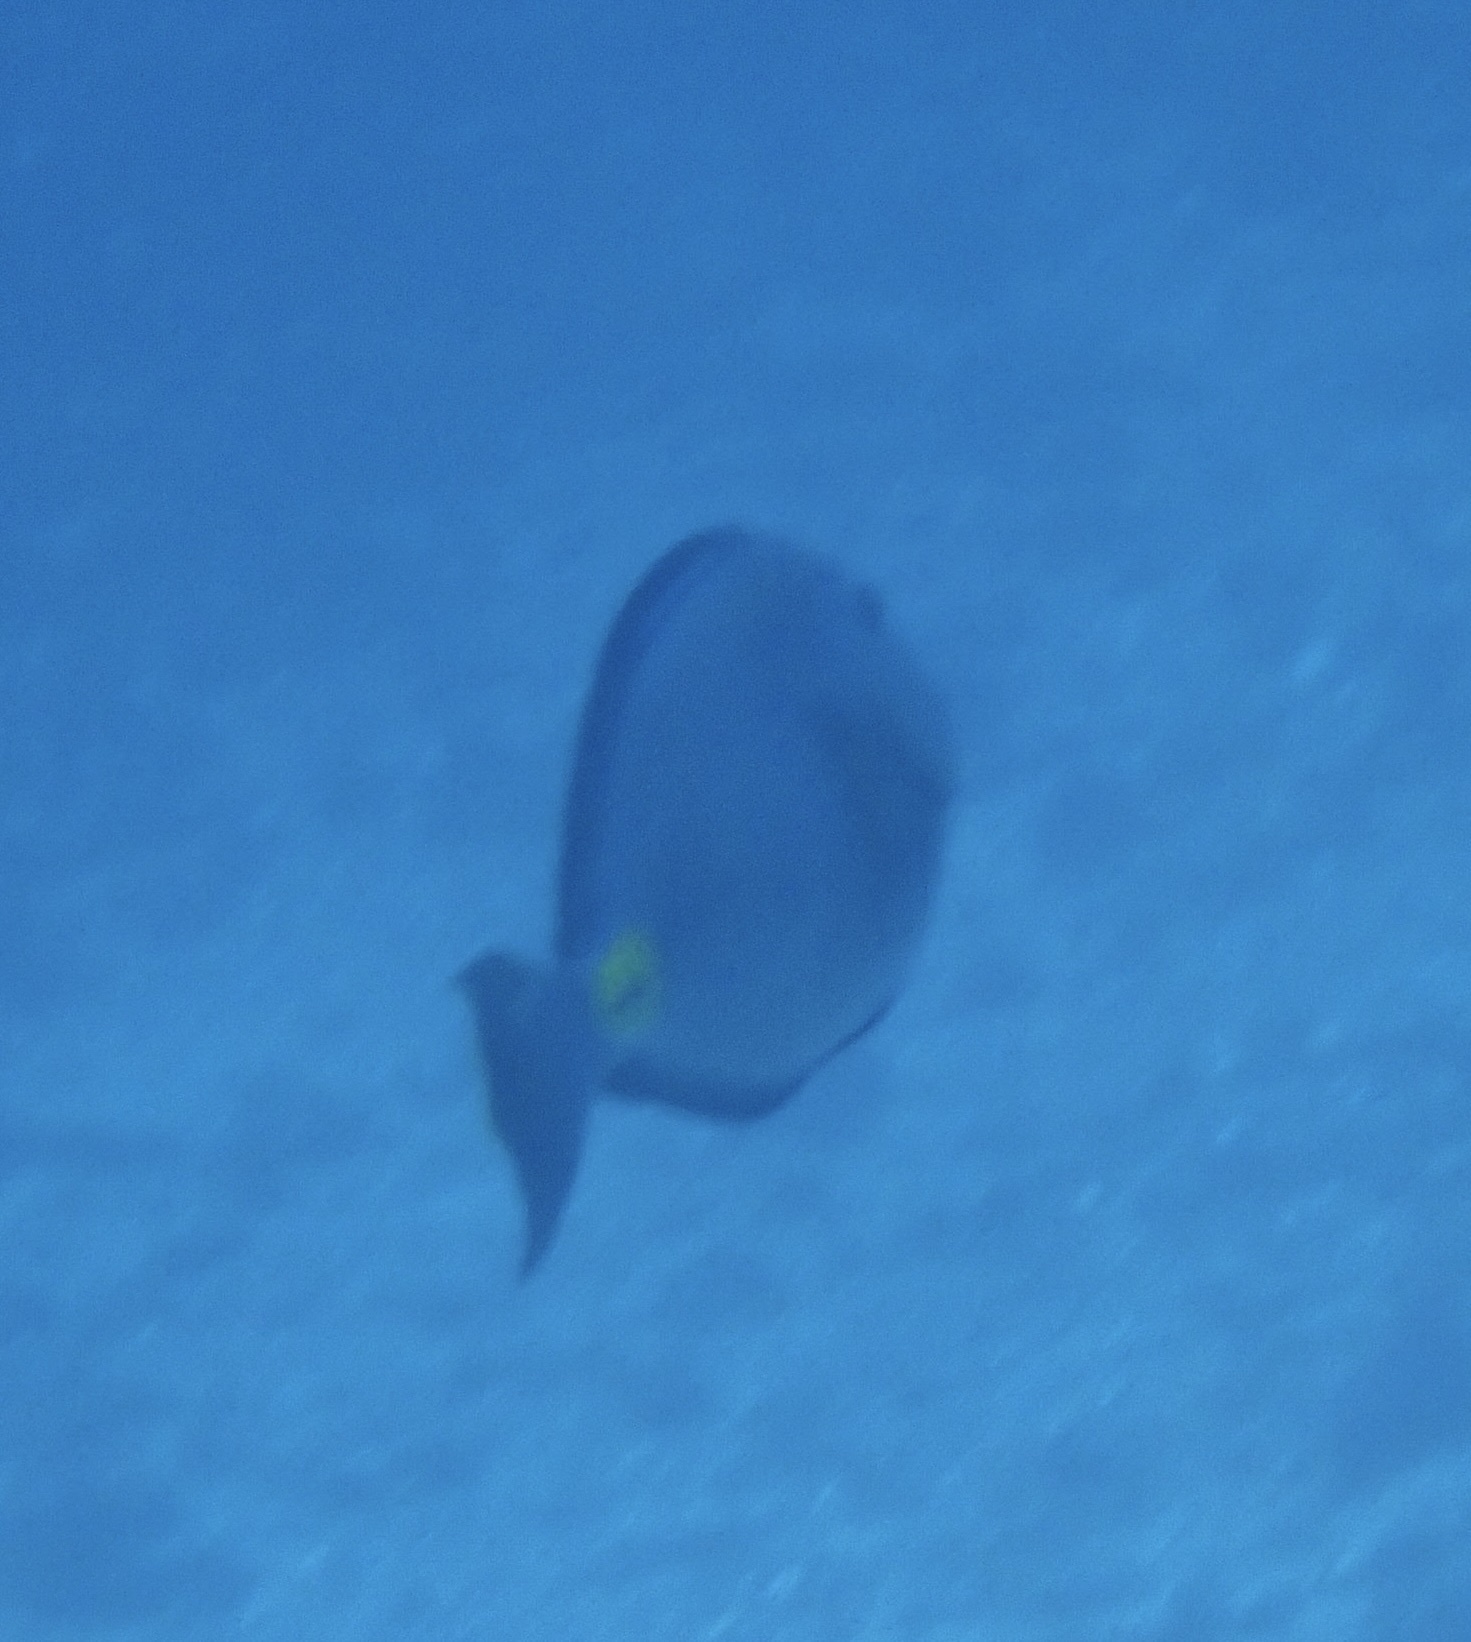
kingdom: Animalia
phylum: Chordata
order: Perciformes
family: Acanthuridae
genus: Acanthurus
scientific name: Acanthurus monroviae
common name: Monrovia surgeonfish
